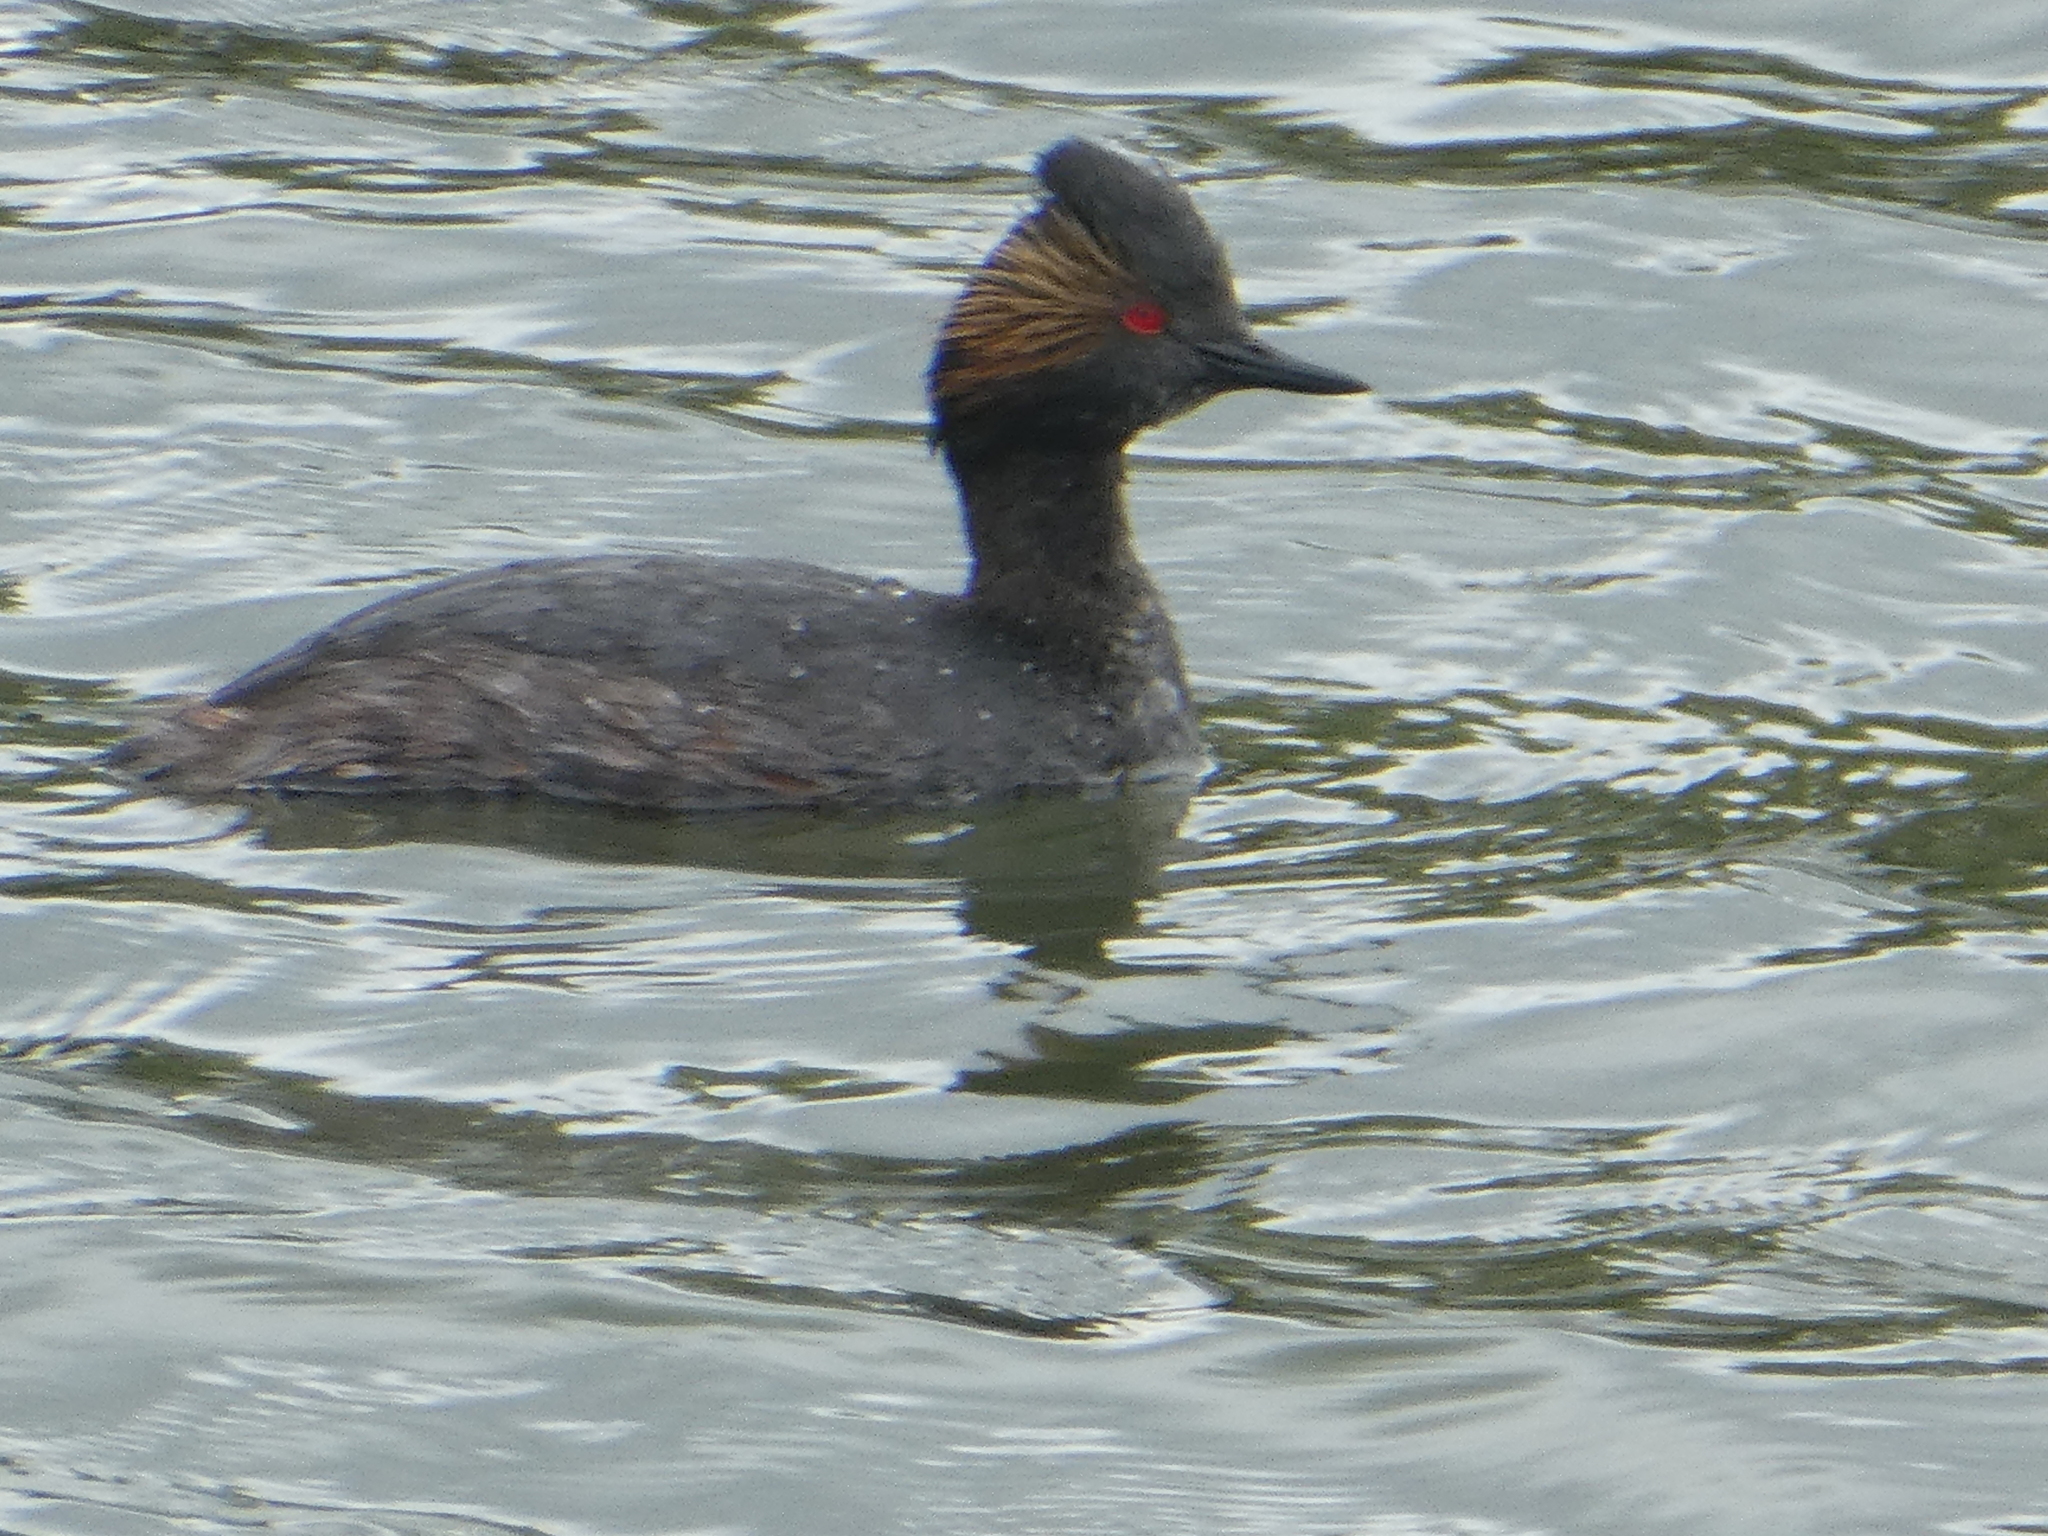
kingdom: Animalia
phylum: Chordata
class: Aves
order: Podicipediformes
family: Podicipedidae
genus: Podiceps
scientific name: Podiceps nigricollis
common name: Black-necked grebe
